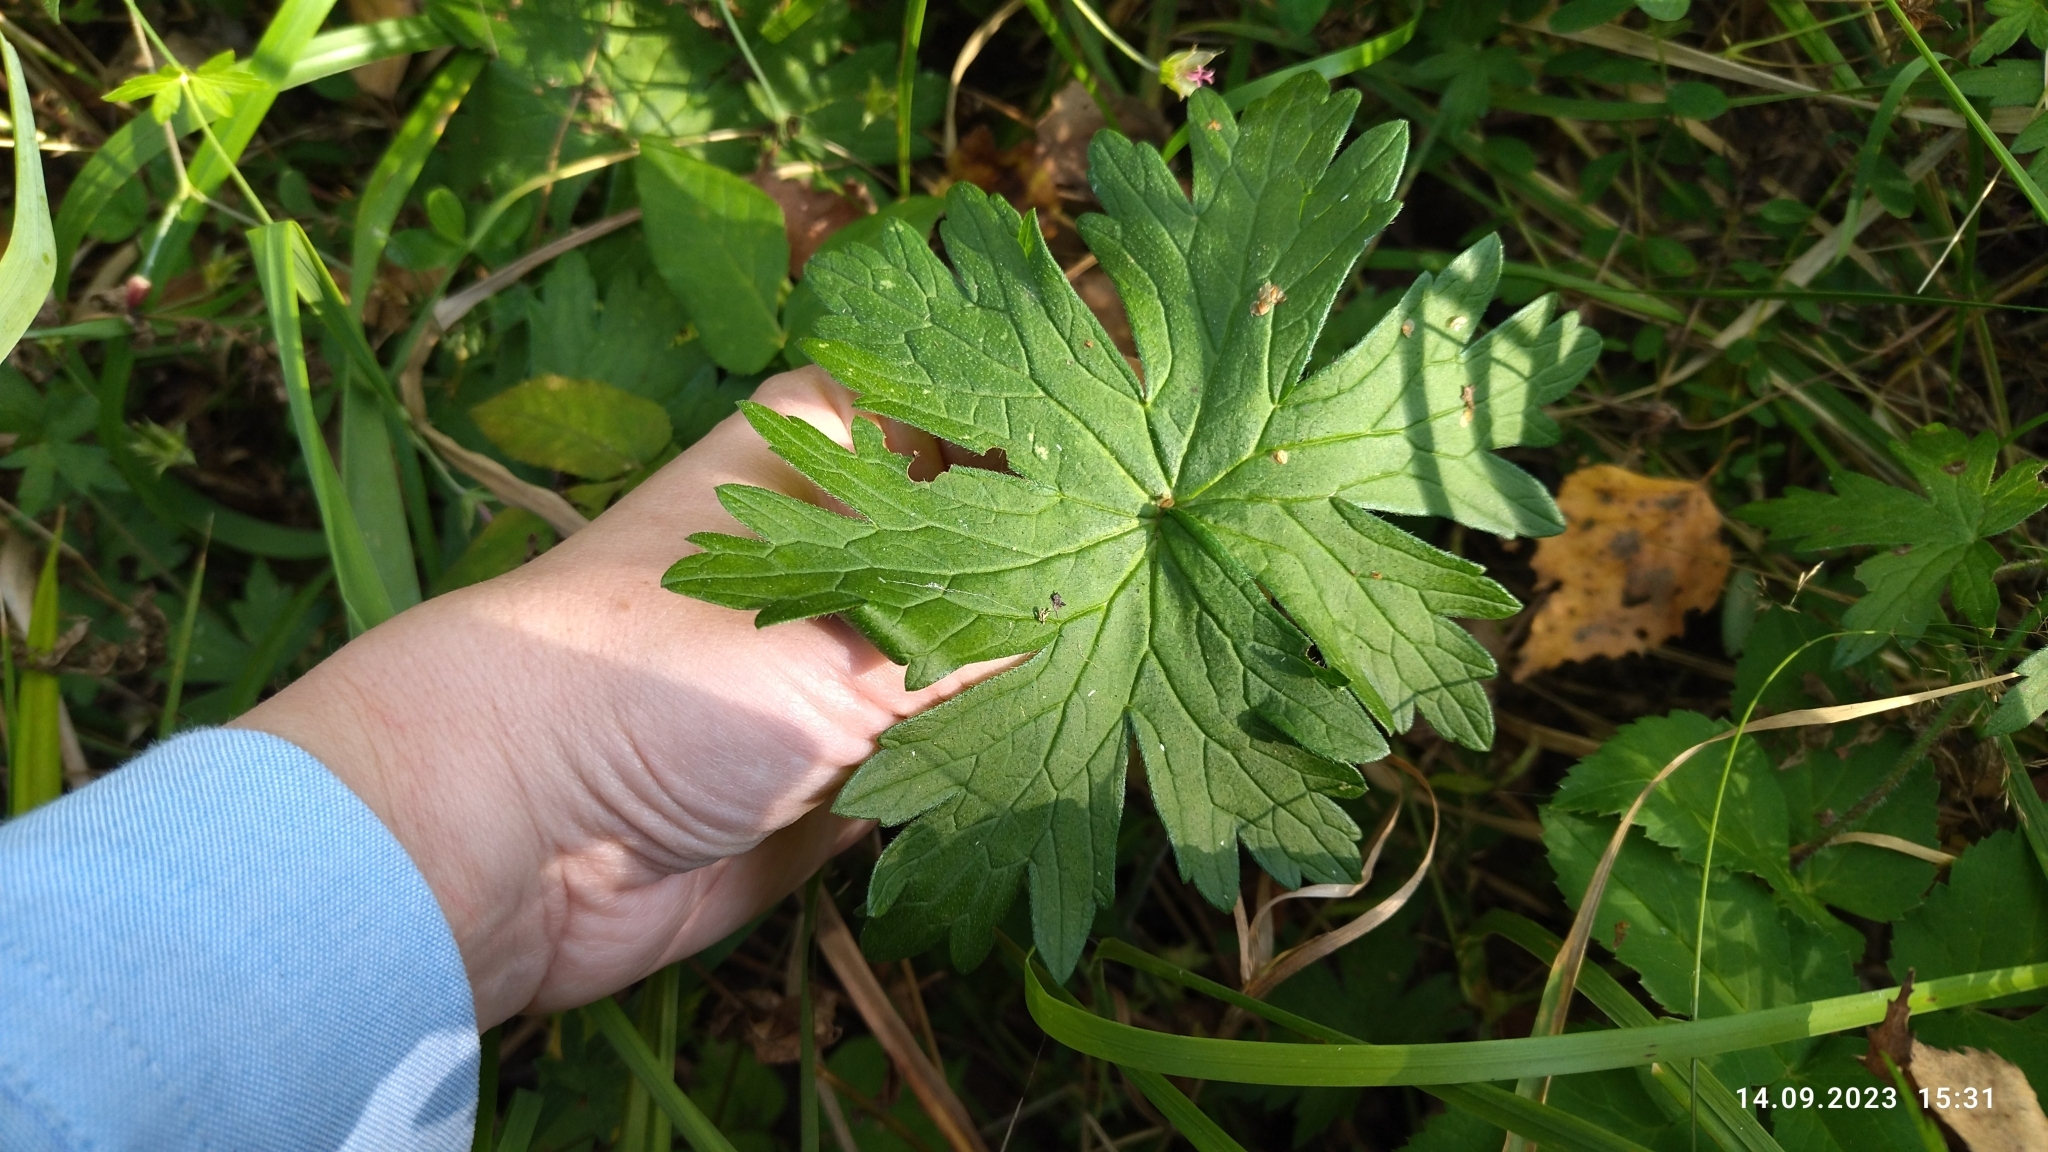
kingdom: Plantae
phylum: Tracheophyta
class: Magnoliopsida
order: Geraniales
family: Geraniaceae
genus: Geranium
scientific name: Geranium palustre
